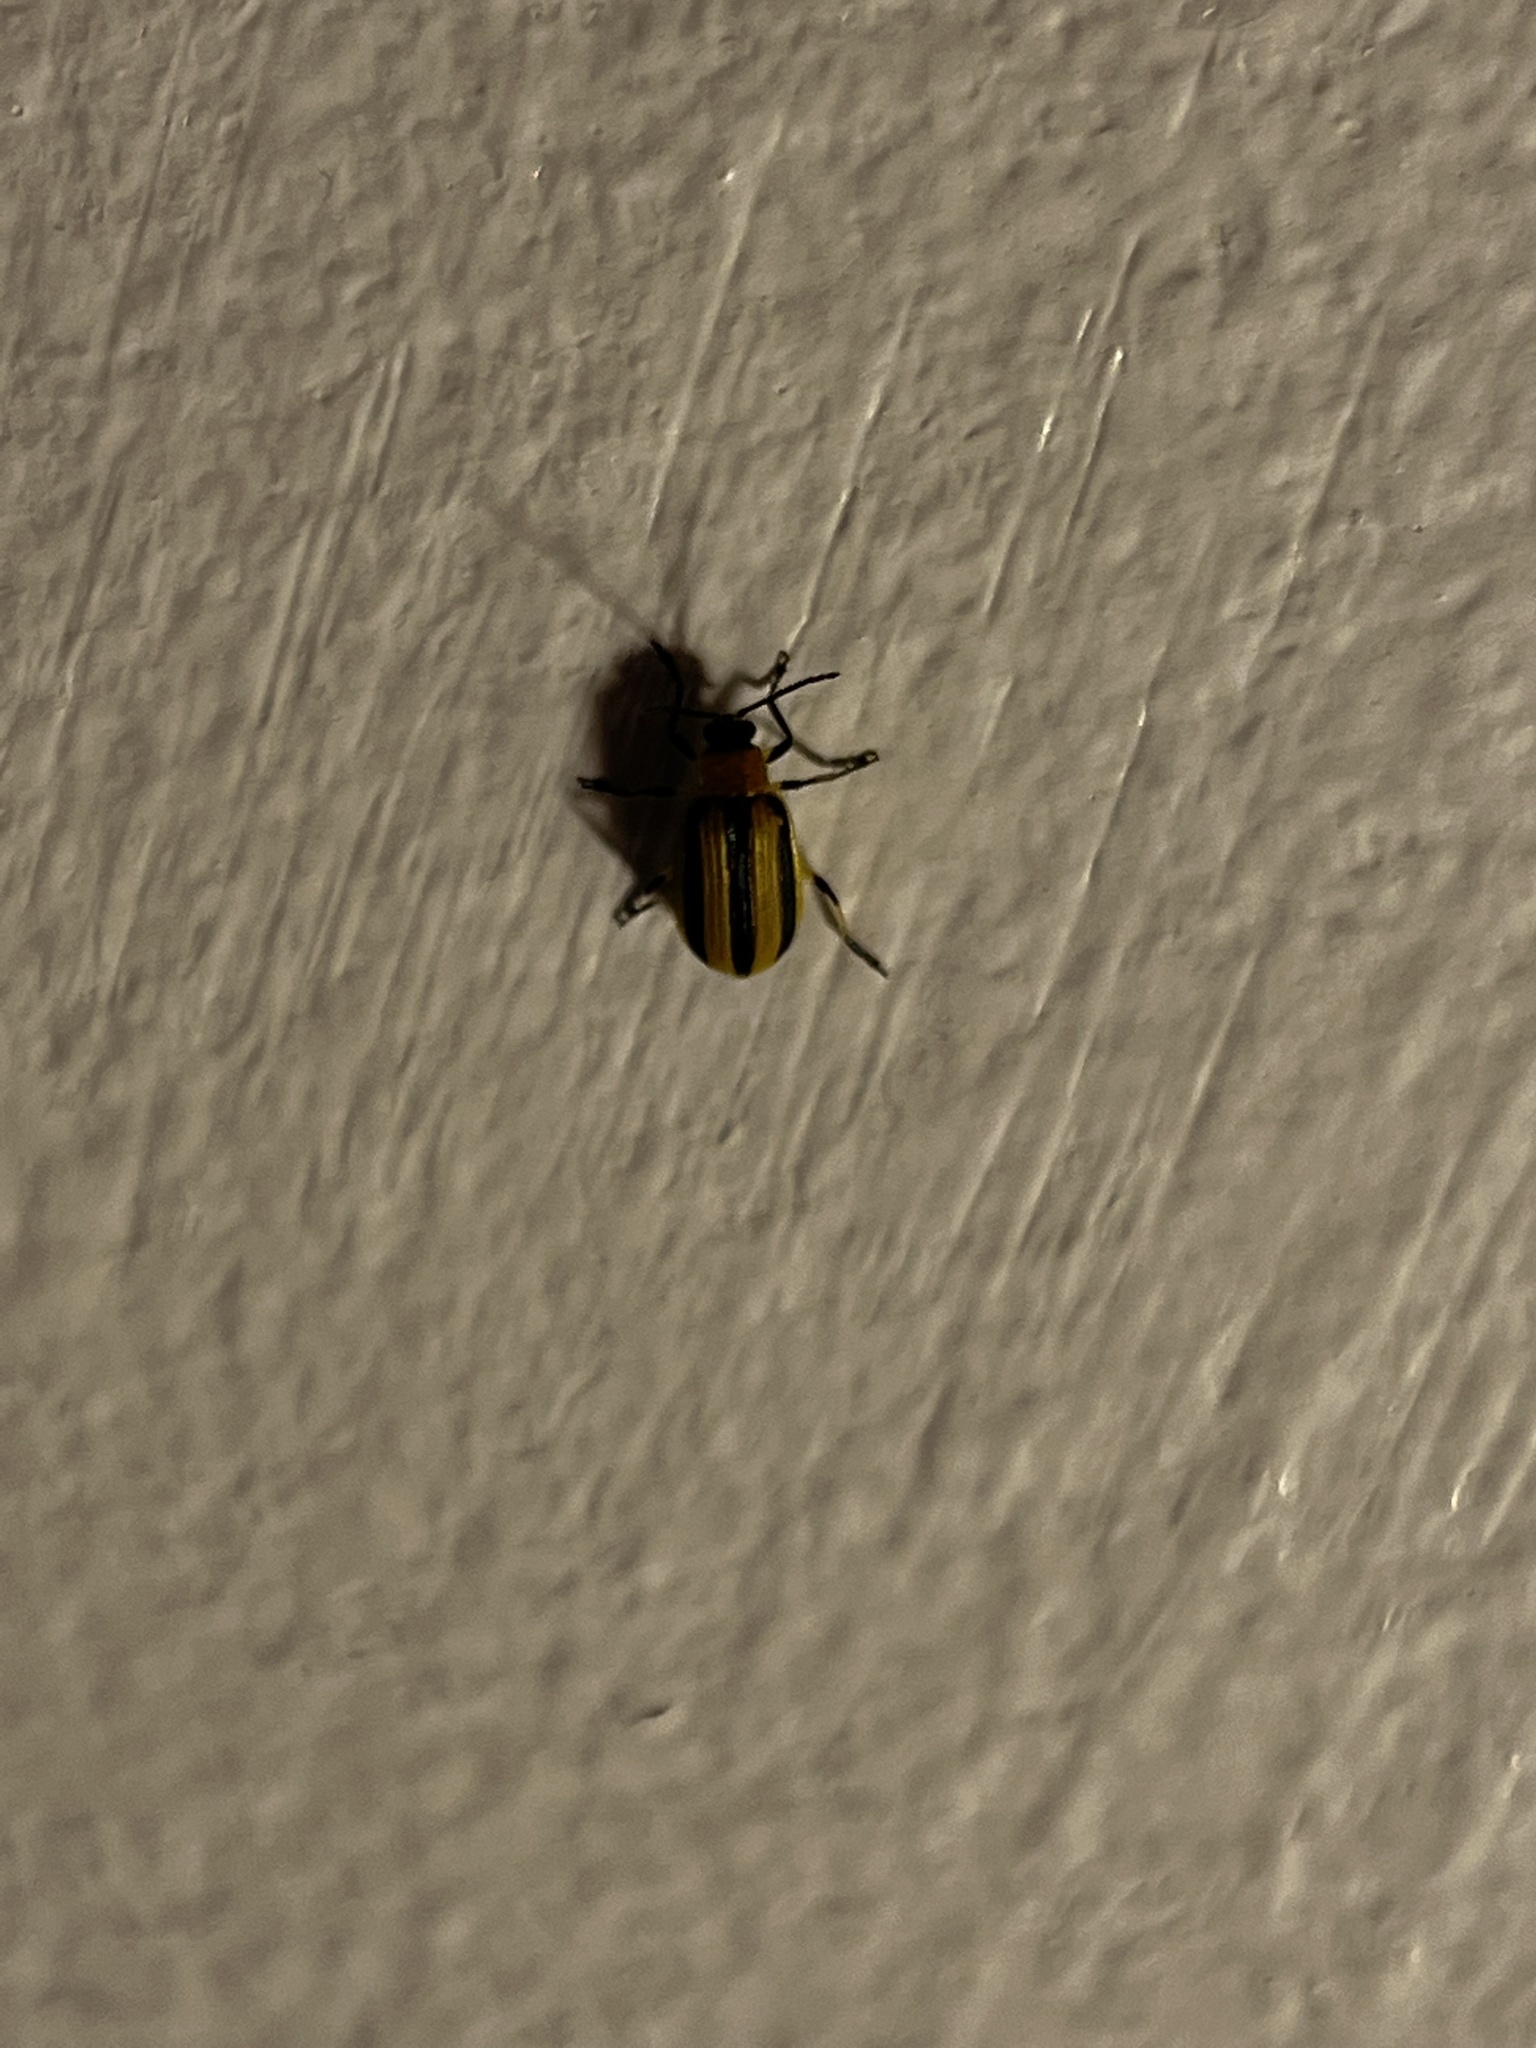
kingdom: Animalia
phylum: Arthropoda
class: Insecta
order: Coleoptera
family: Chrysomelidae
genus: Acalymma
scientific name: Acalymma vittatum
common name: Striped cucumber beetle
